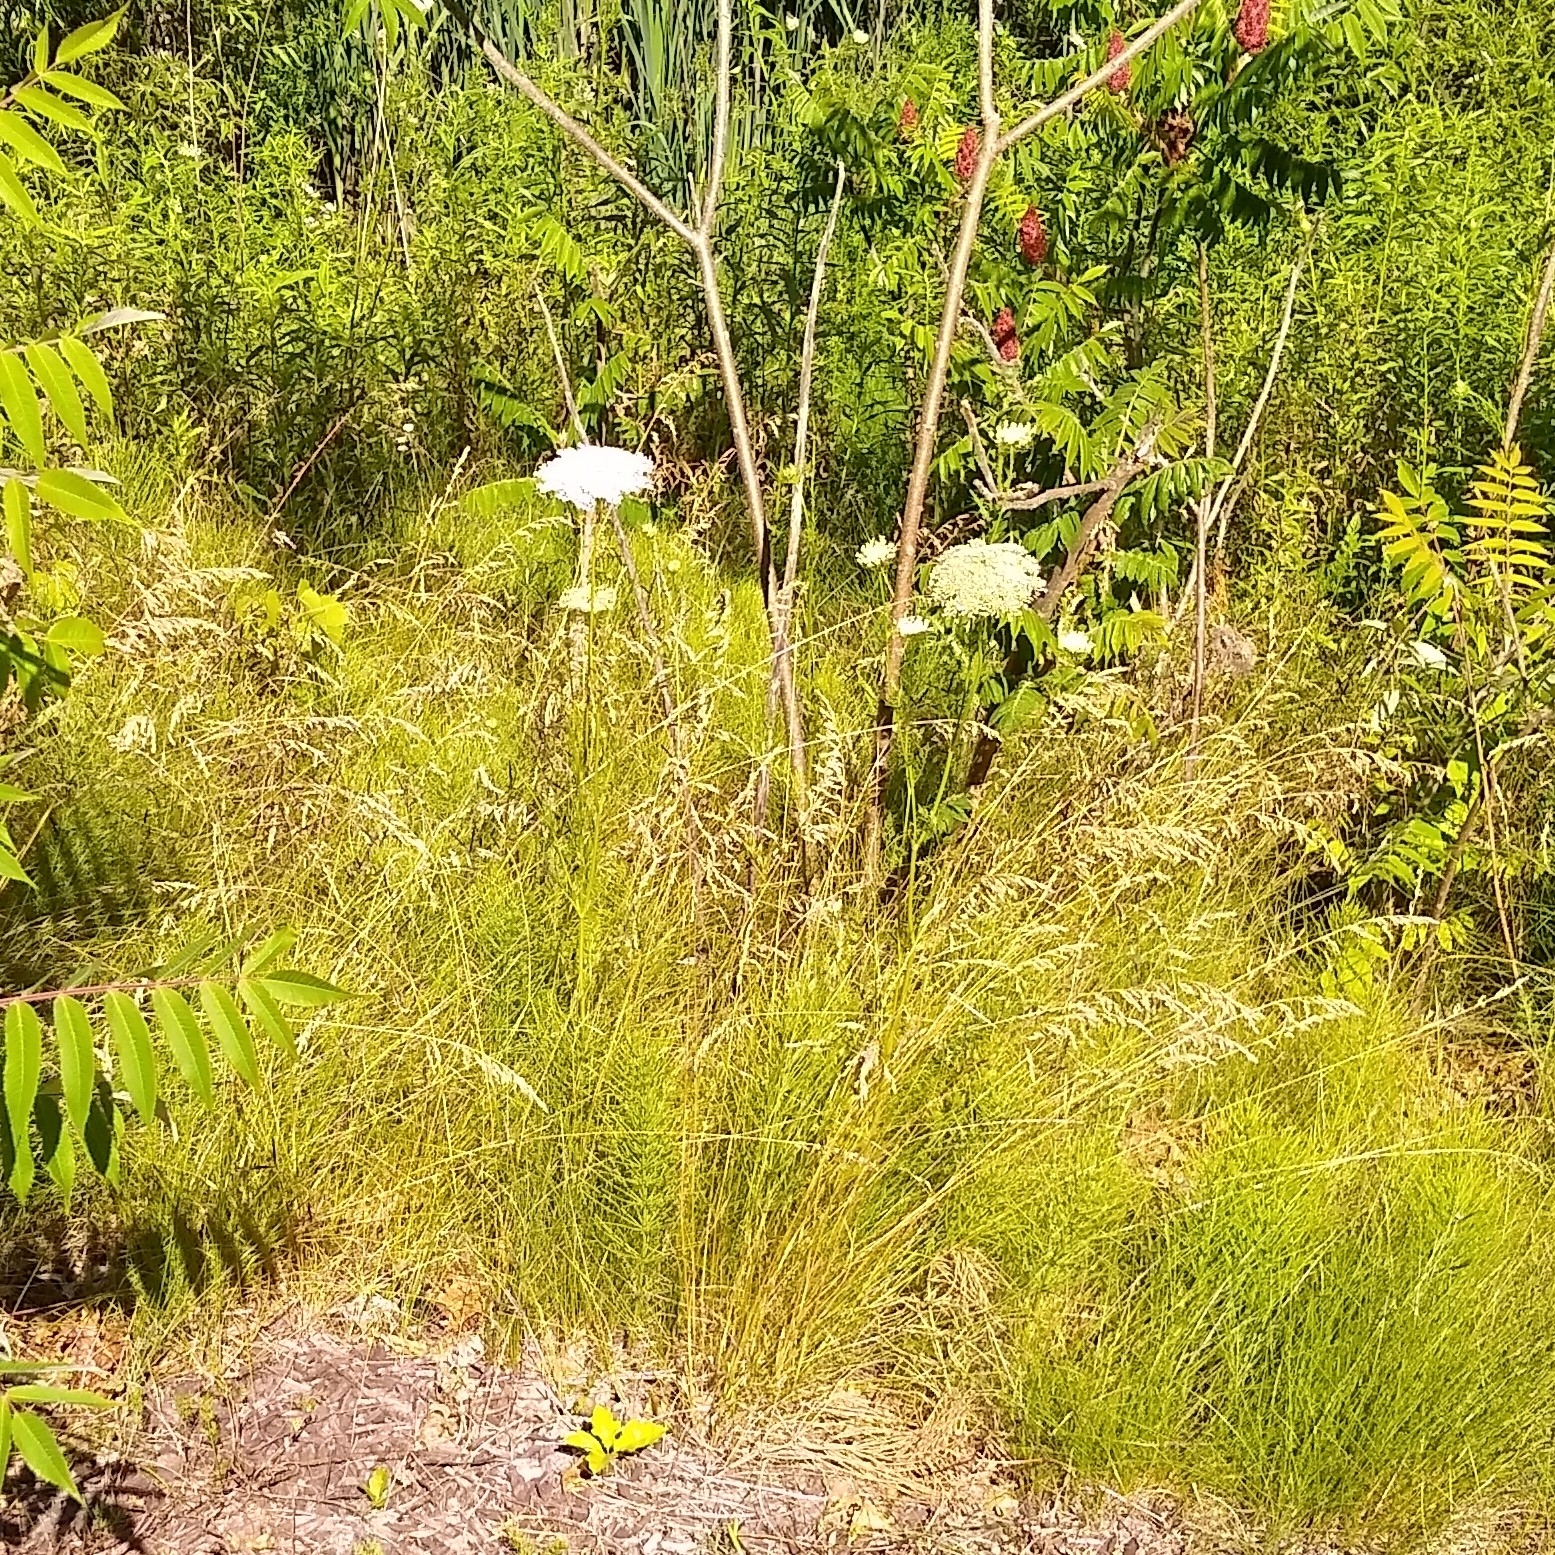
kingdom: Plantae
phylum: Tracheophyta
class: Magnoliopsida
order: Apiales
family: Apiaceae
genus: Daucus
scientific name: Daucus carota
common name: Wild carrot
